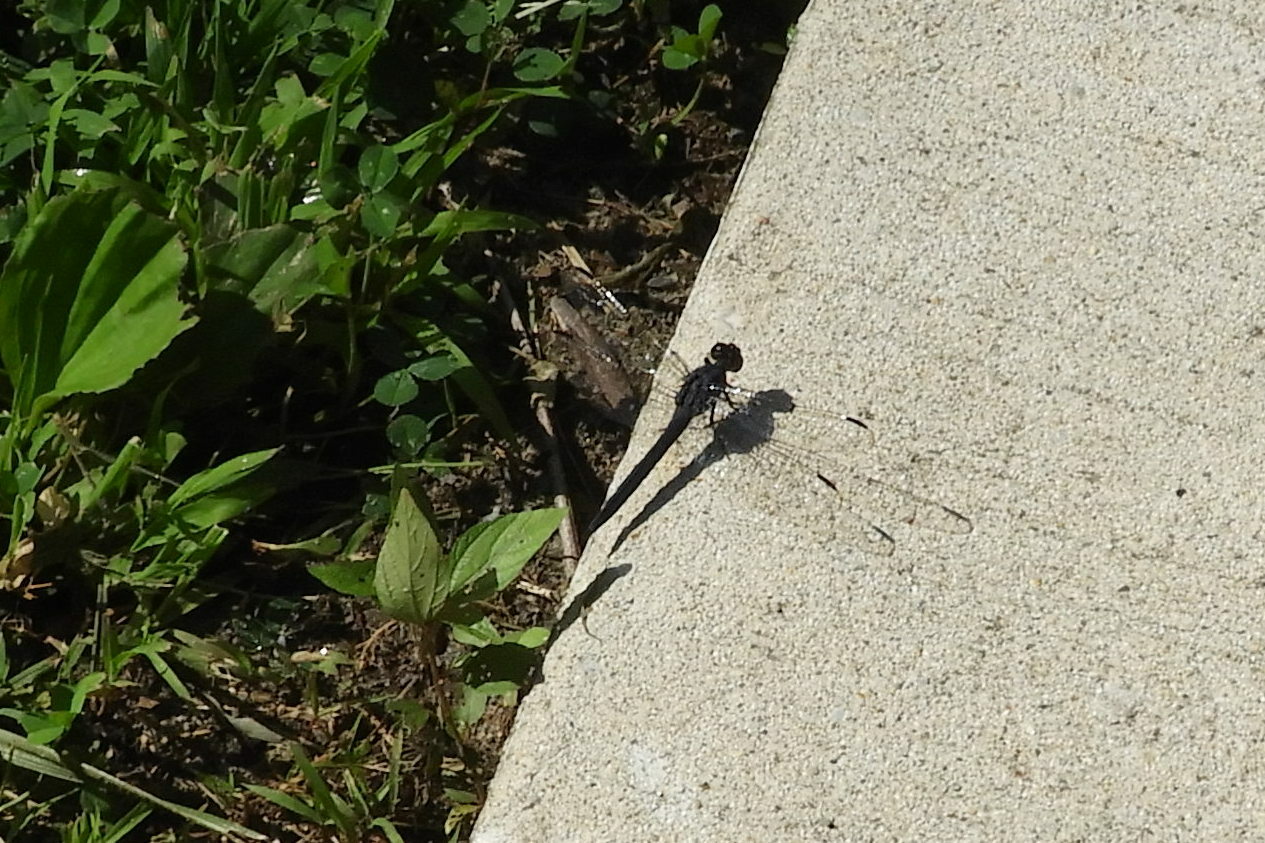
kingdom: Animalia
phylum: Arthropoda
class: Insecta
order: Odonata
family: Libellulidae
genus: Libellula
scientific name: Libellula incesta
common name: Slaty skimmer
